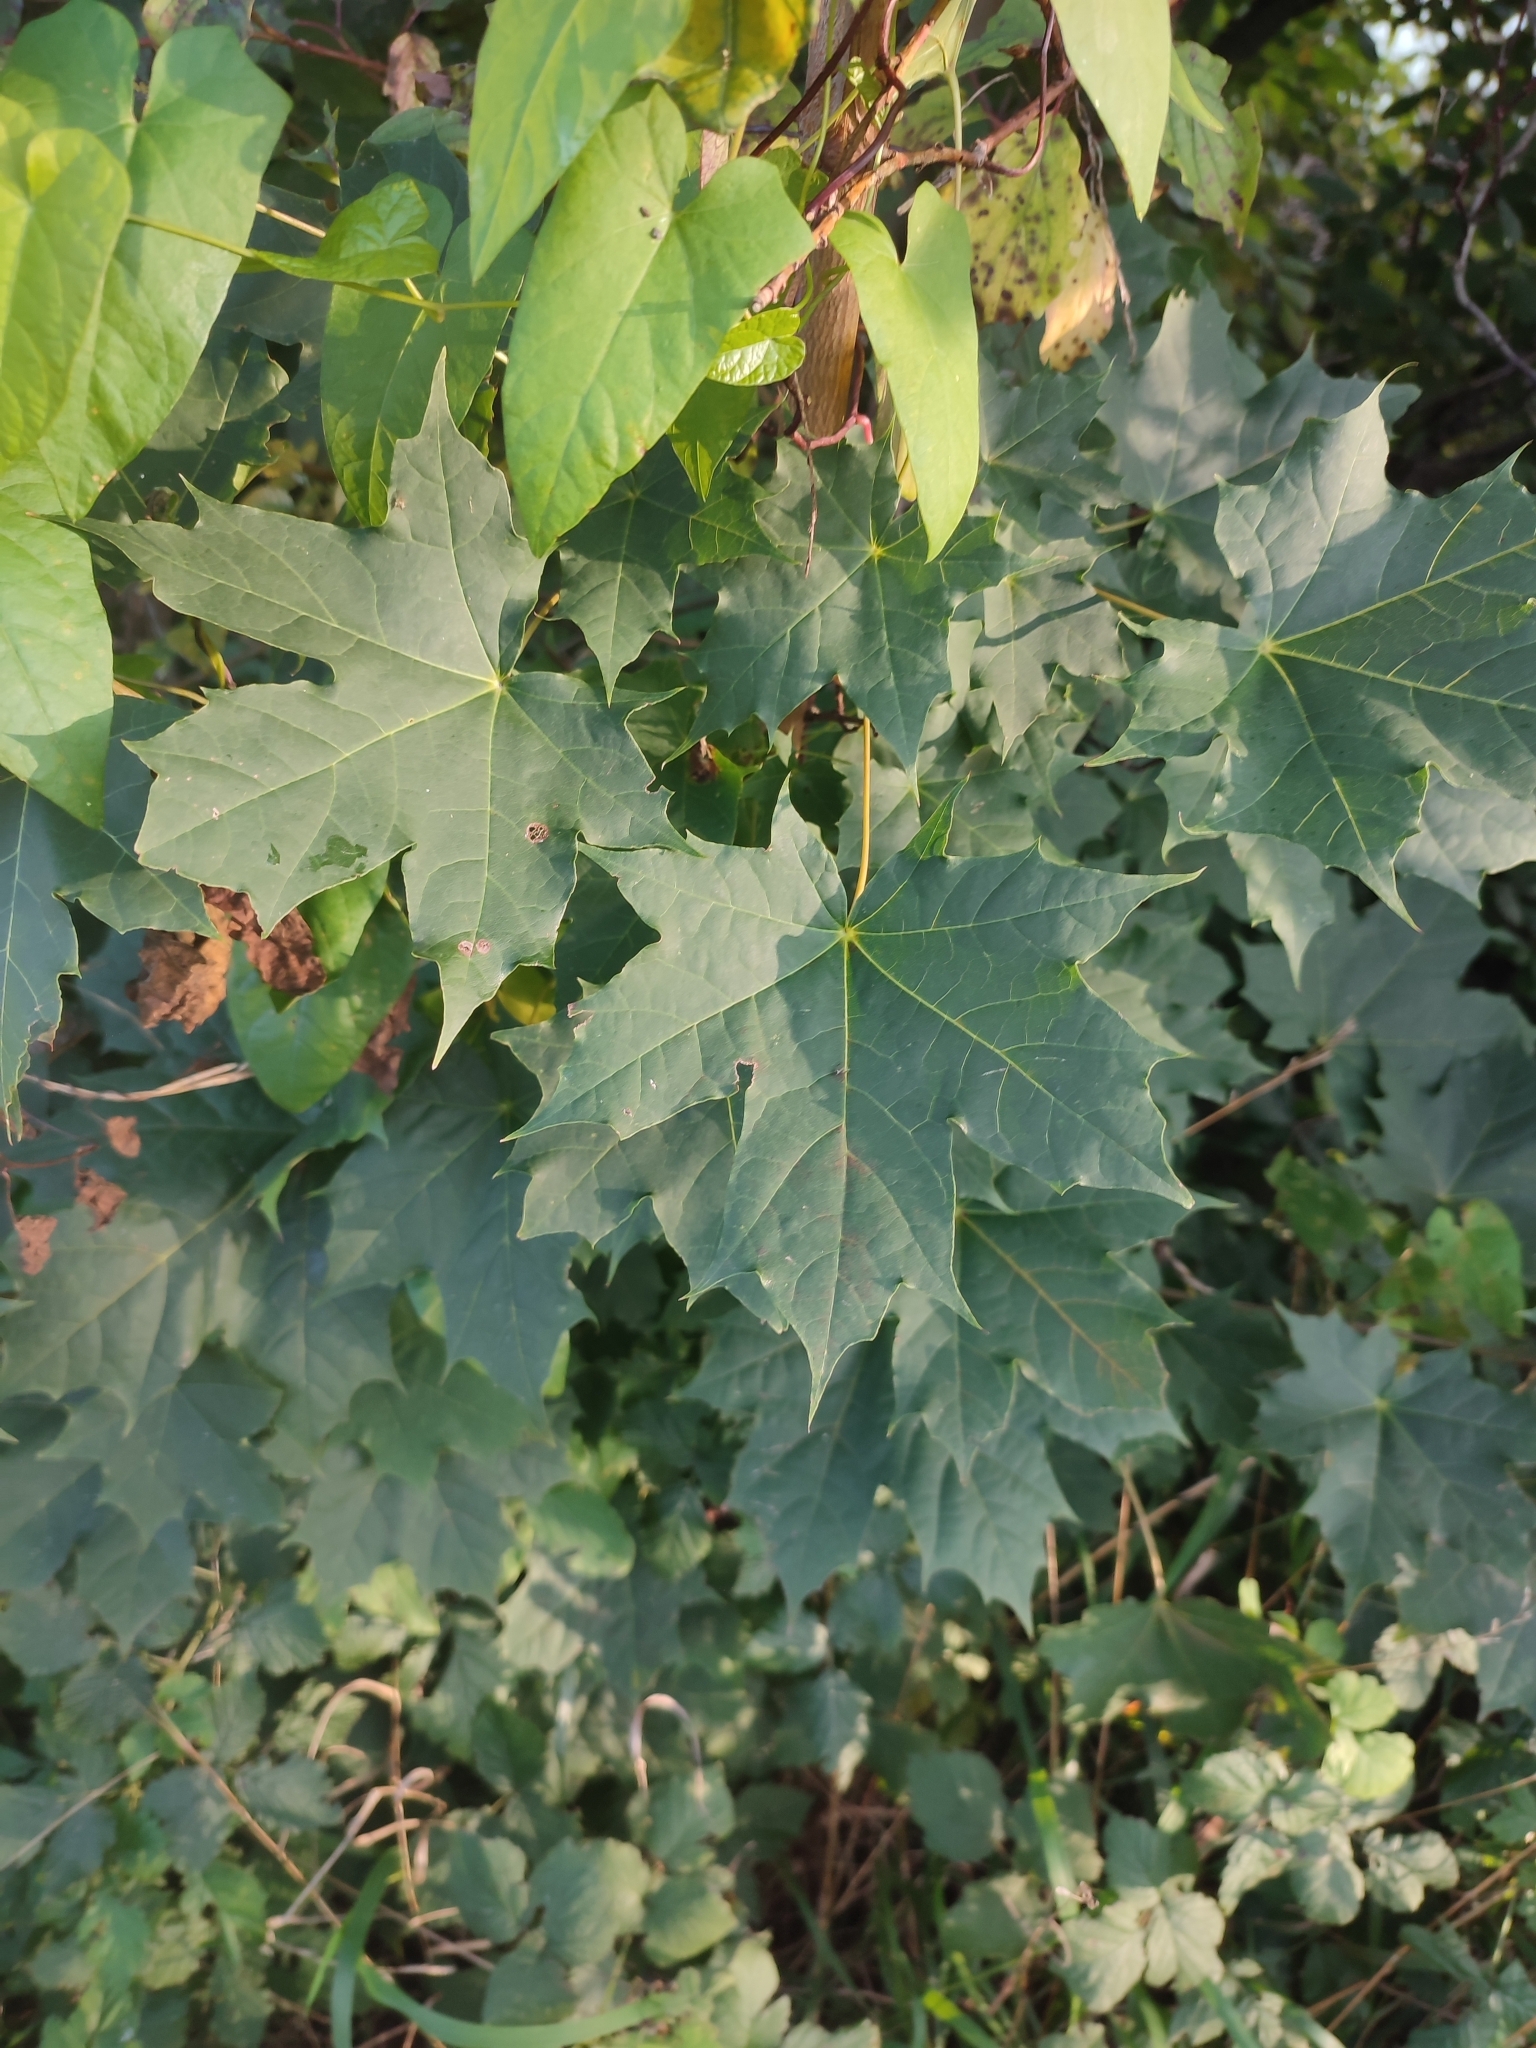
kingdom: Plantae
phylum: Tracheophyta
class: Magnoliopsida
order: Sapindales
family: Sapindaceae
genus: Acer
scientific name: Acer platanoides
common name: Norway maple
